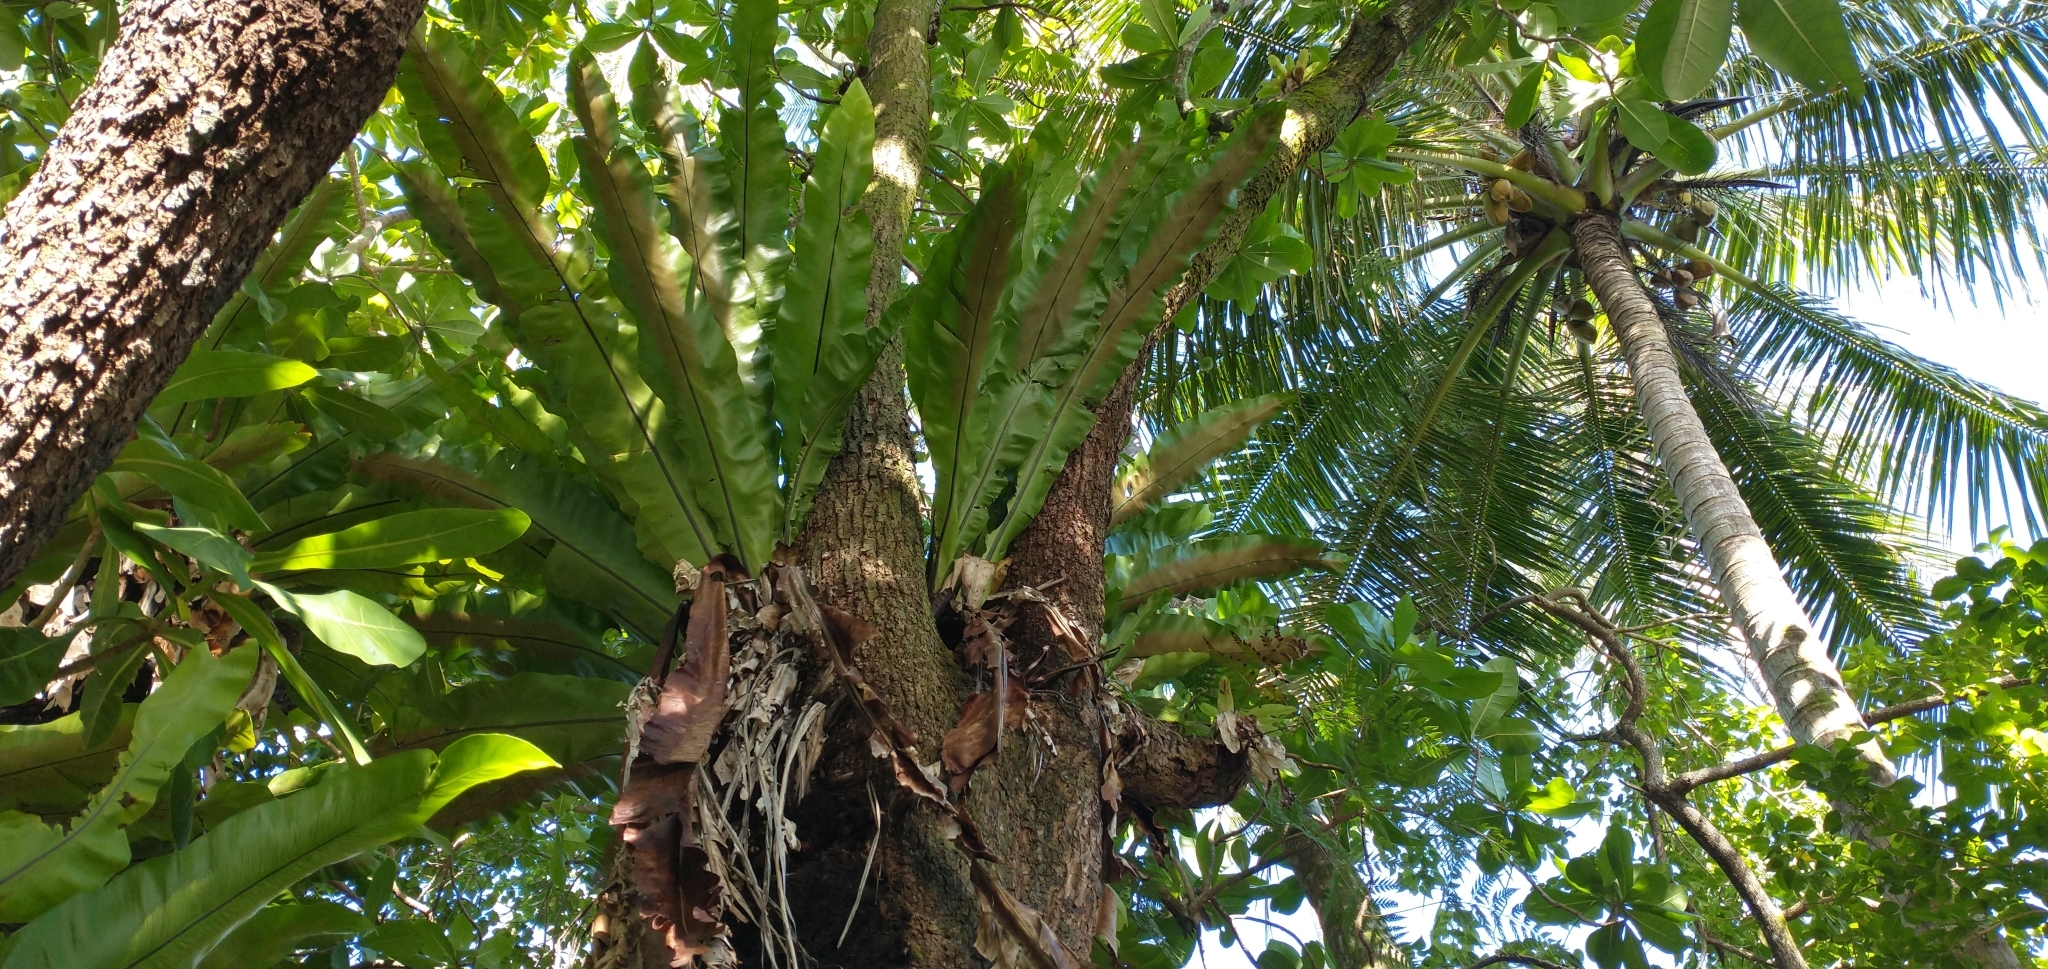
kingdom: Plantae
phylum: Tracheophyta
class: Polypodiopsida
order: Polypodiales
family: Aspleniaceae
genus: Asplenium
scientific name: Asplenium nidus
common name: Bird's-nest fern
